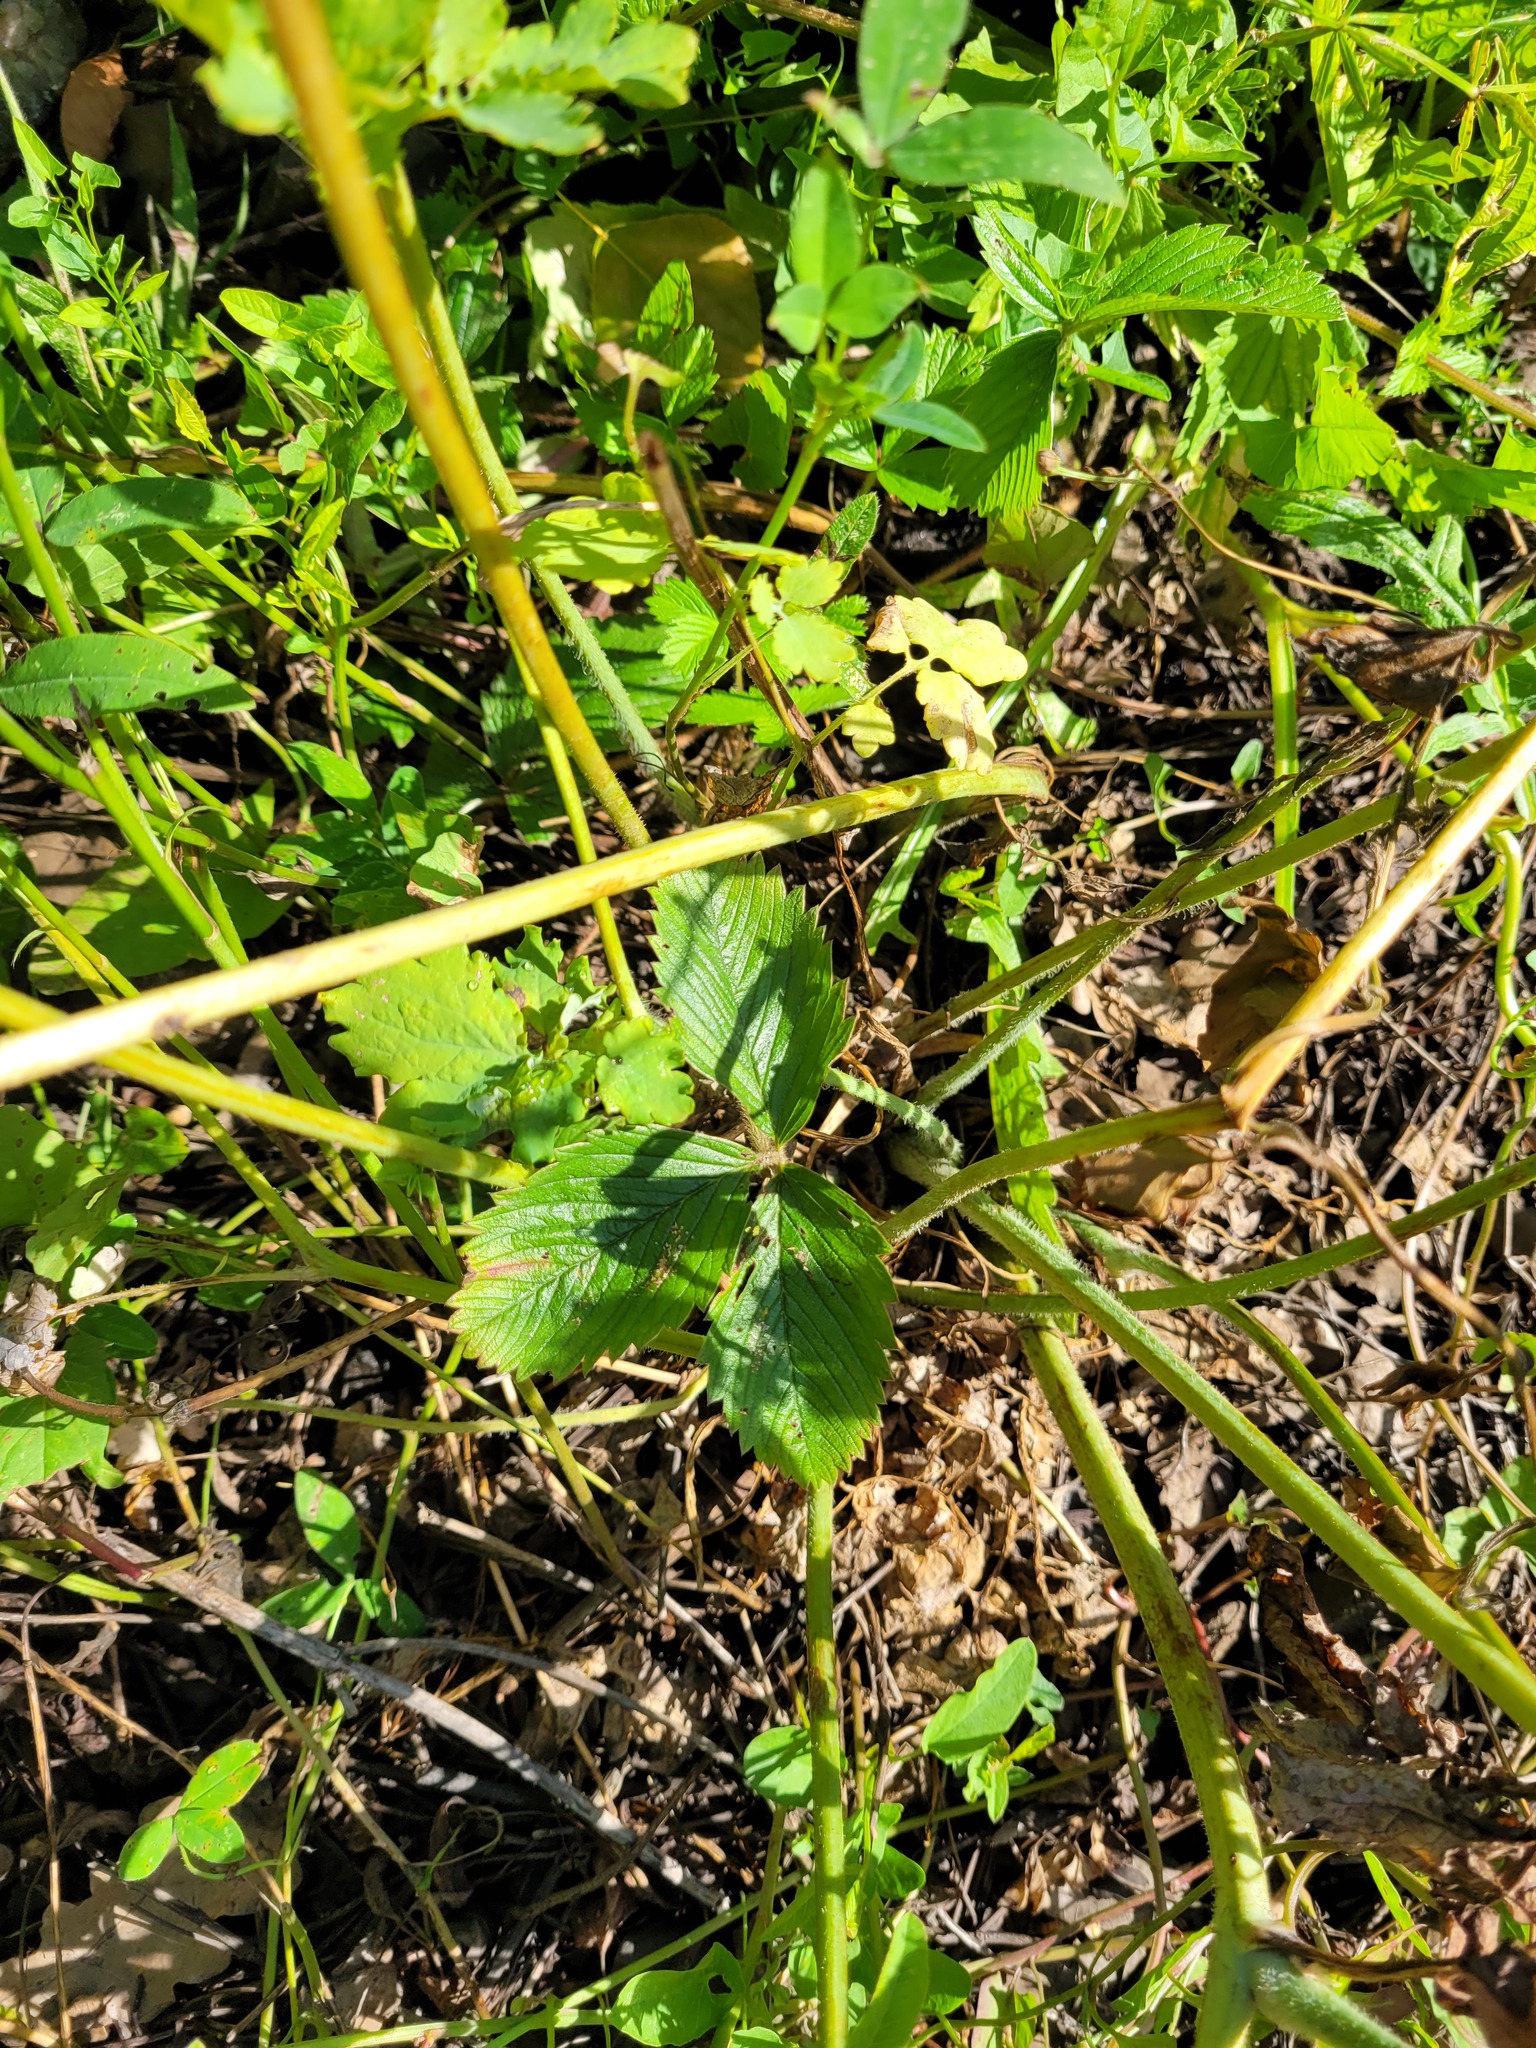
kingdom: Plantae
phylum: Tracheophyta
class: Magnoliopsida
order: Rosales
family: Rosaceae
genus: Fragaria
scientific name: Fragaria viridis
